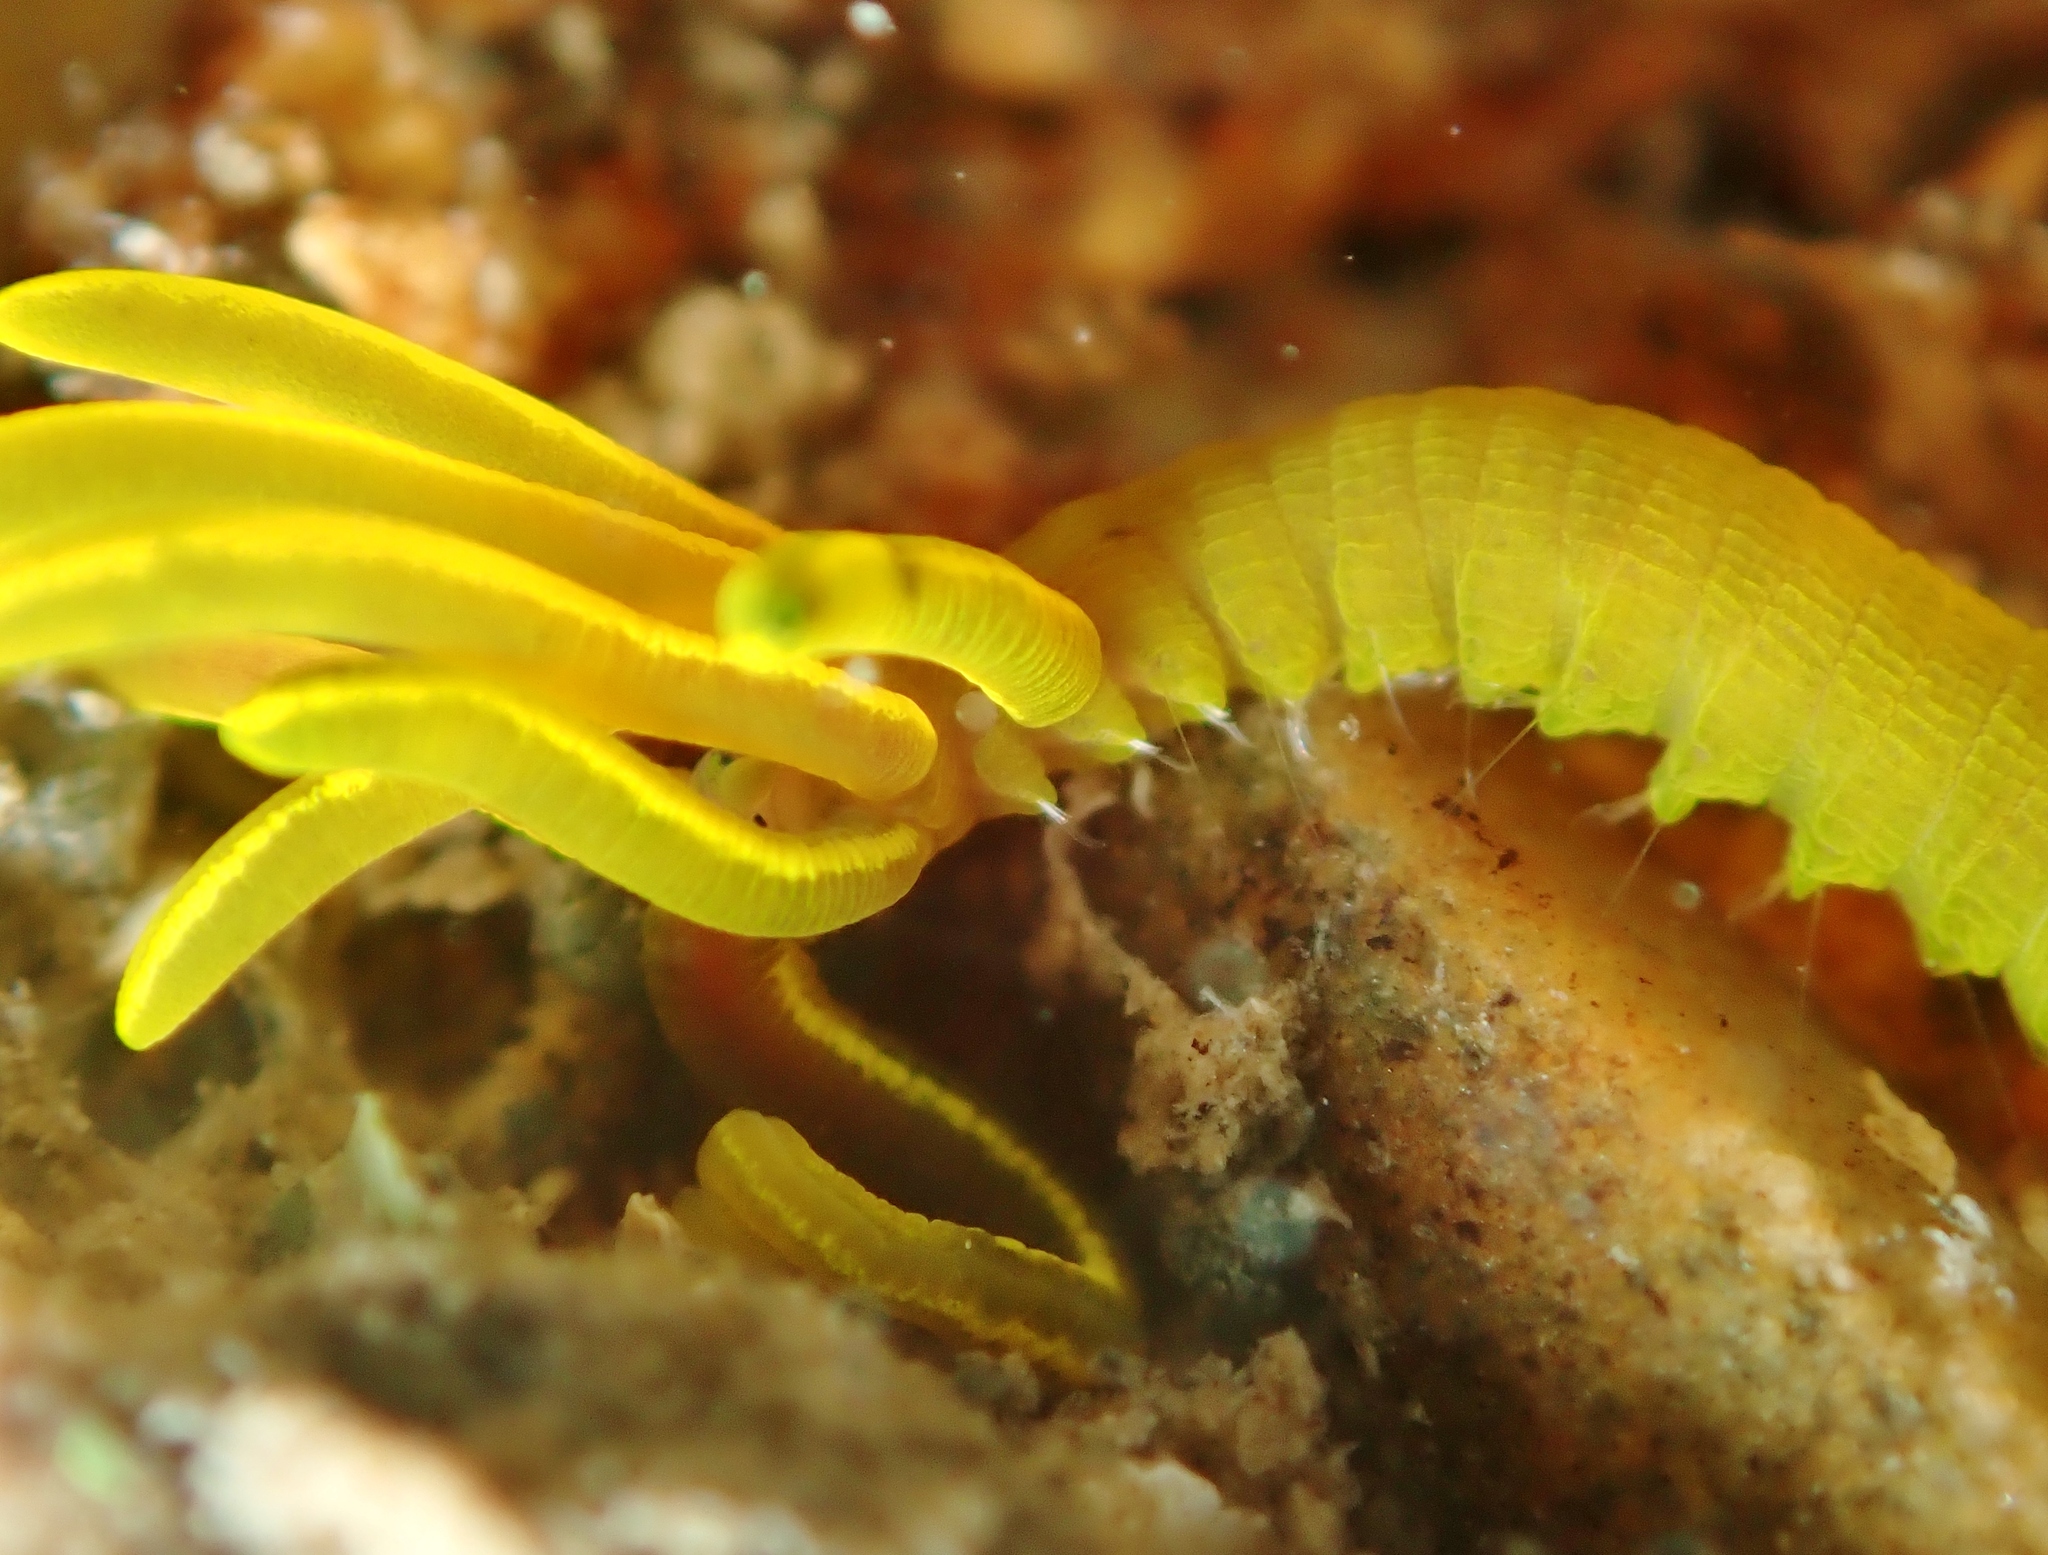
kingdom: Animalia
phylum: Annelida
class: Polychaeta
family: Acrocirridae
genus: Acrocirrus
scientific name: Acrocirrus trisectus
